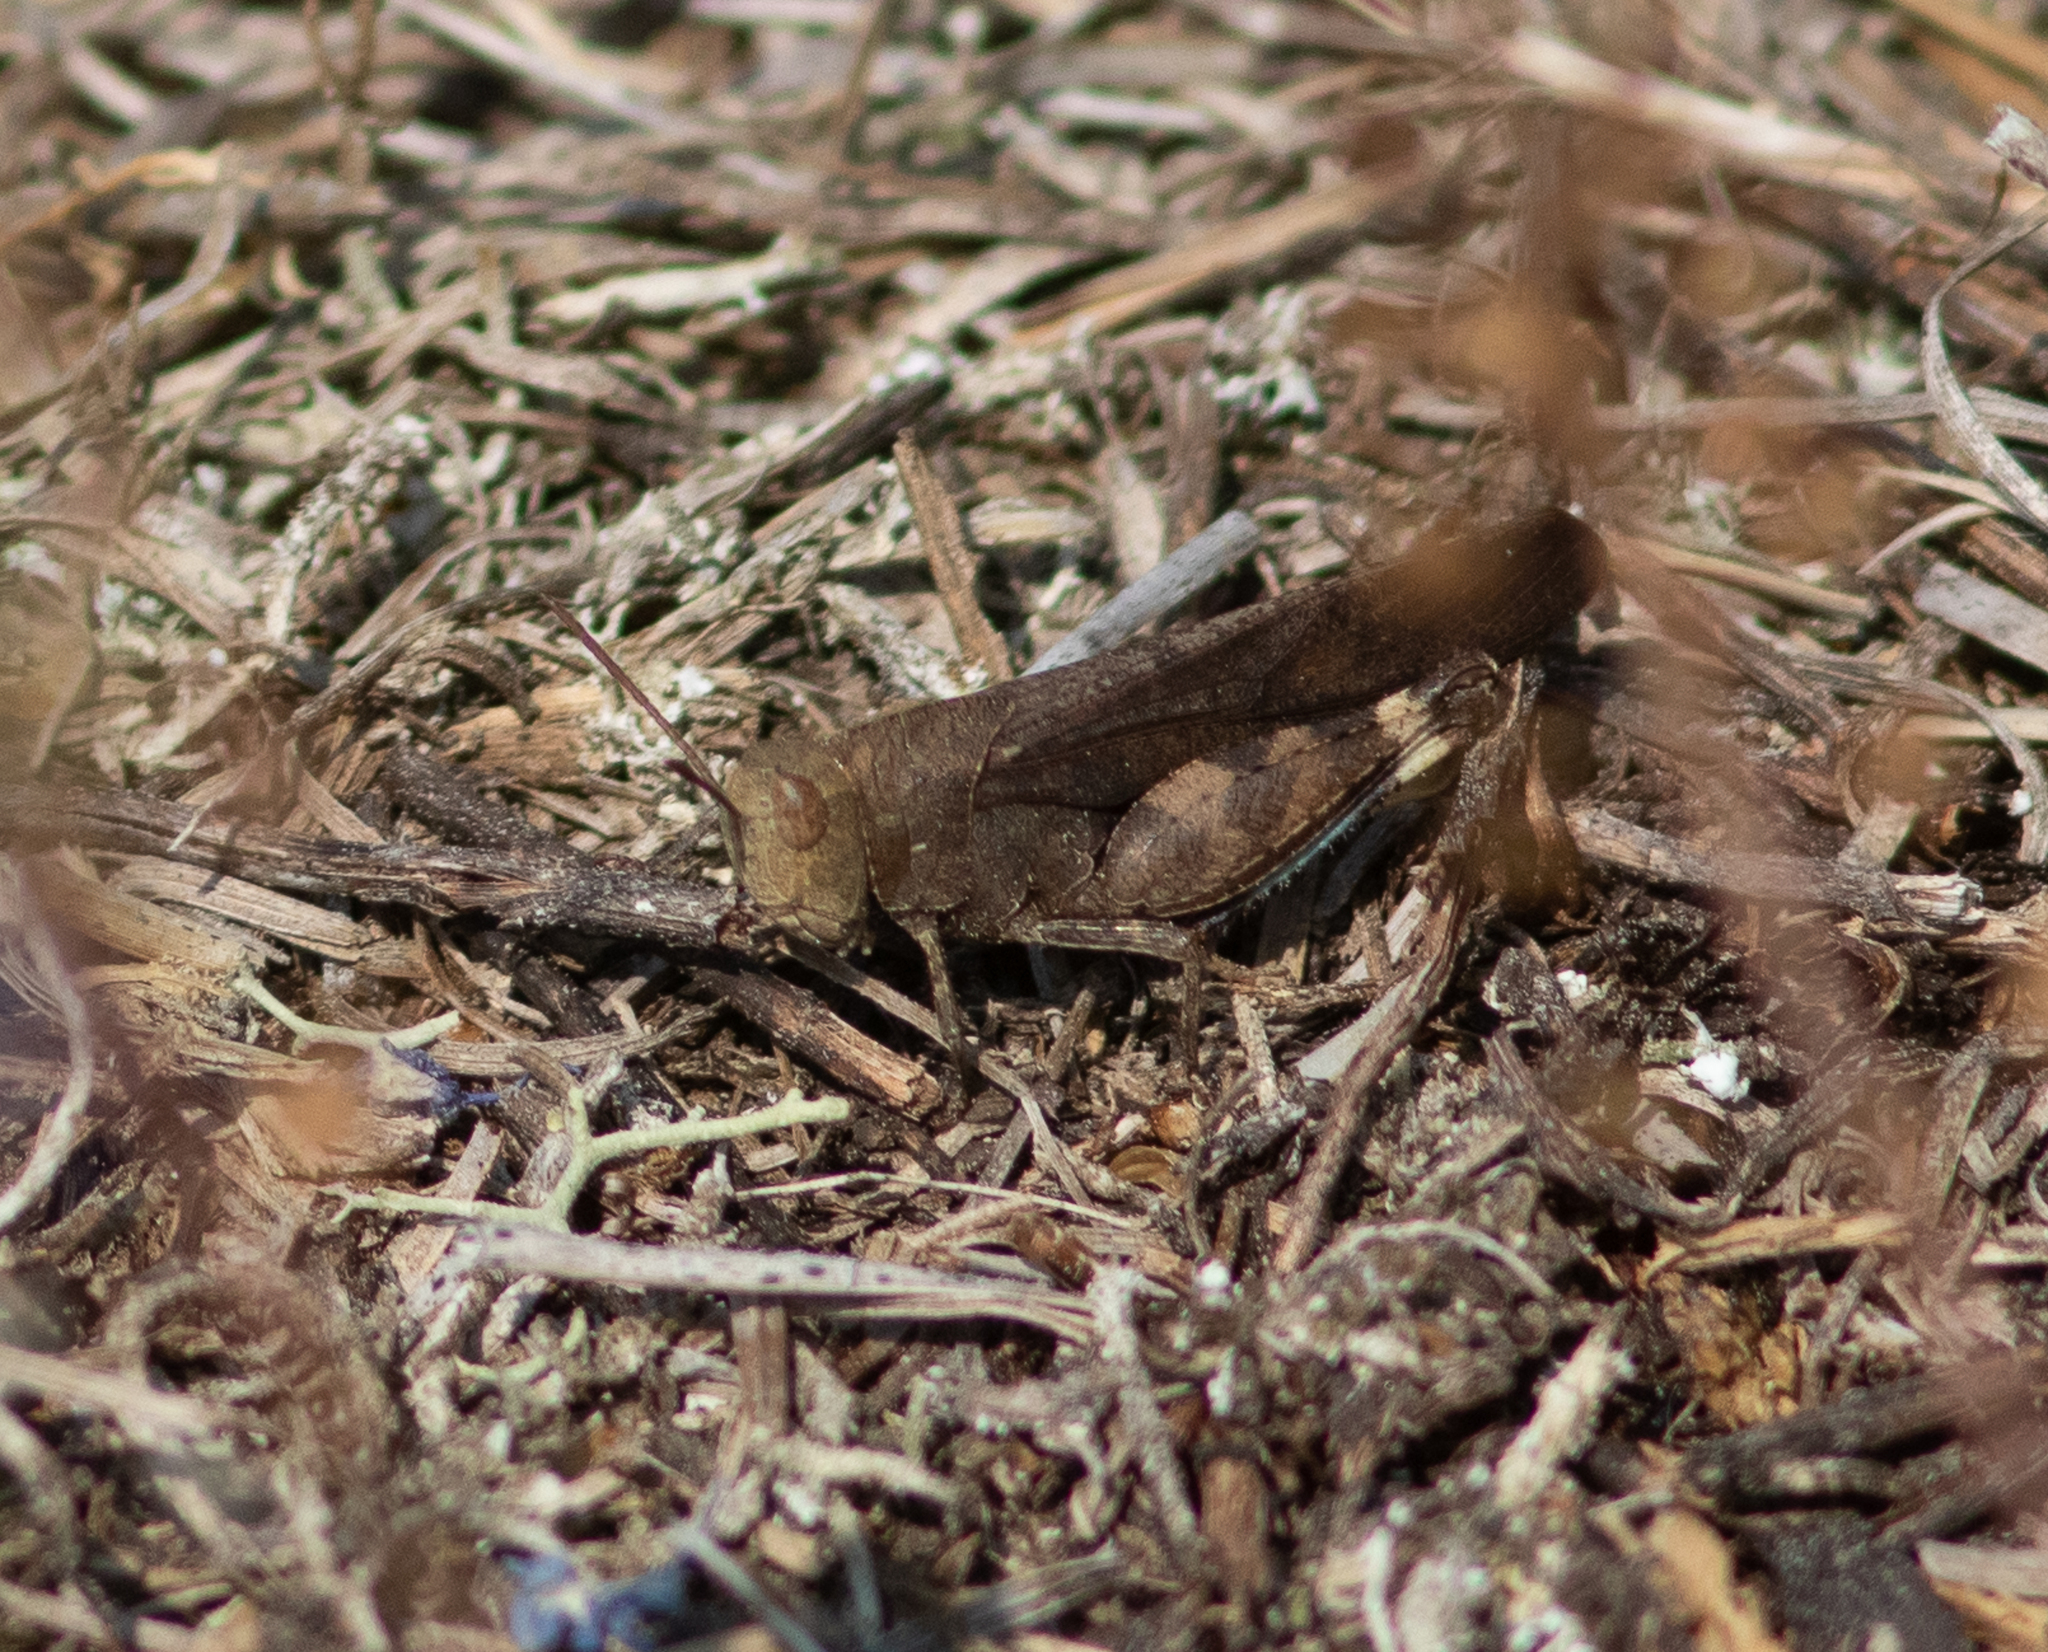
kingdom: Animalia
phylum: Arthropoda
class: Insecta
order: Orthoptera
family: Acrididae
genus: Arphia
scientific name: Arphia sulphurea
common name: Spring yellow-winged locust
